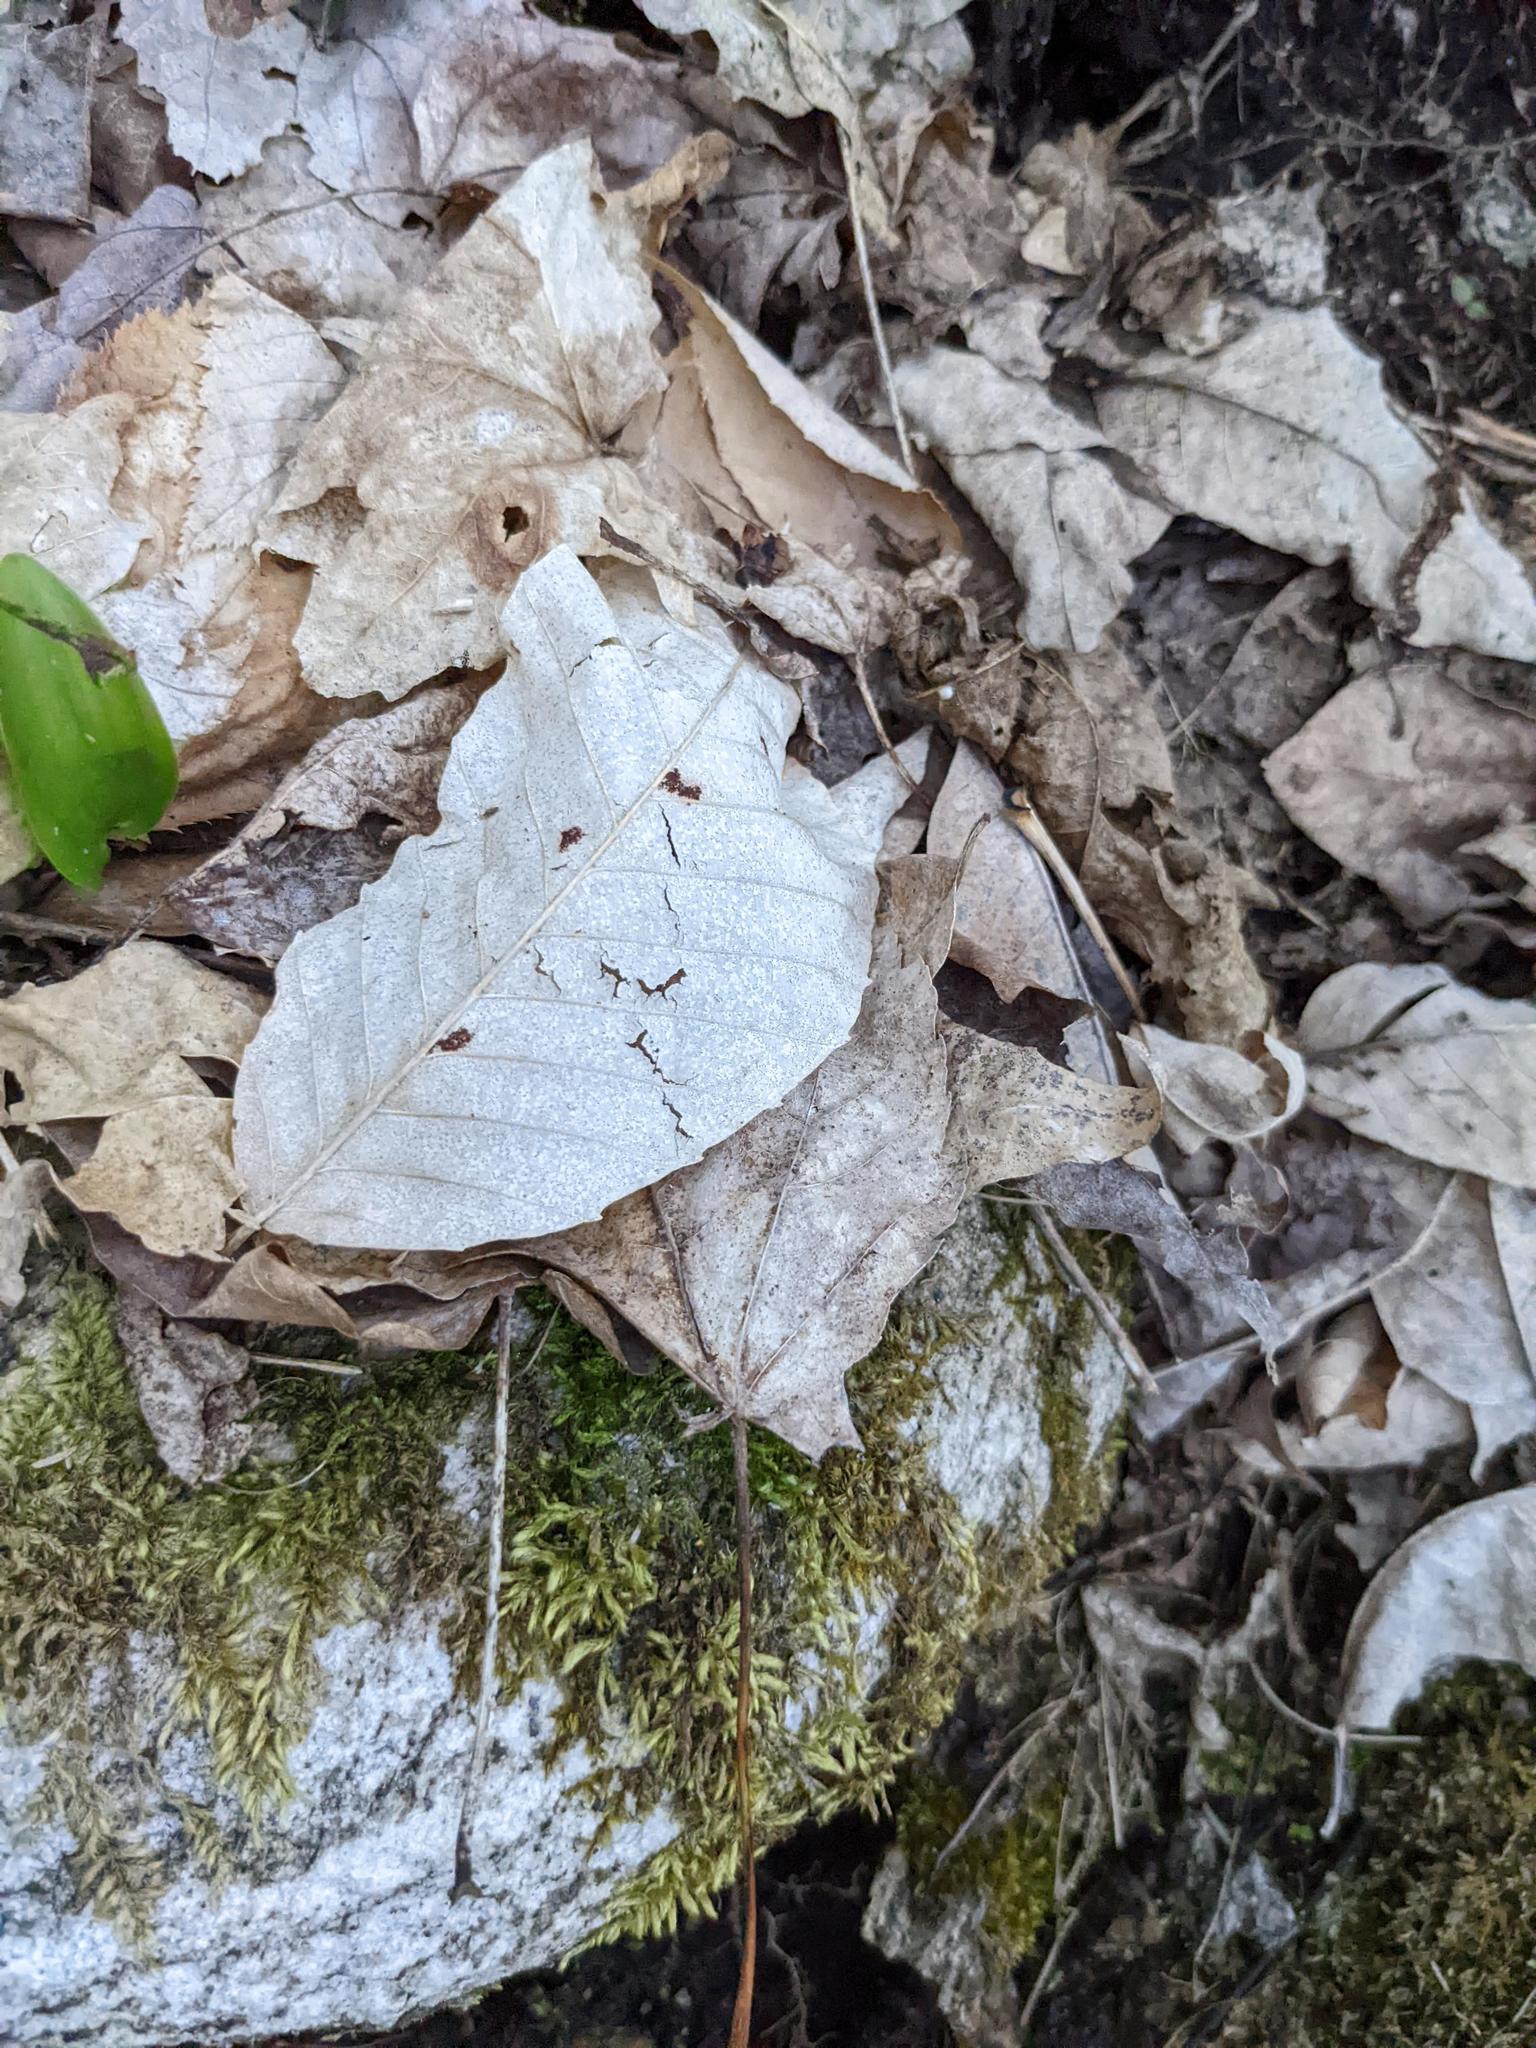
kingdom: Plantae
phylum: Tracheophyta
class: Magnoliopsida
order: Fagales
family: Fagaceae
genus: Fagus
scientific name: Fagus grandifolia
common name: American beech
